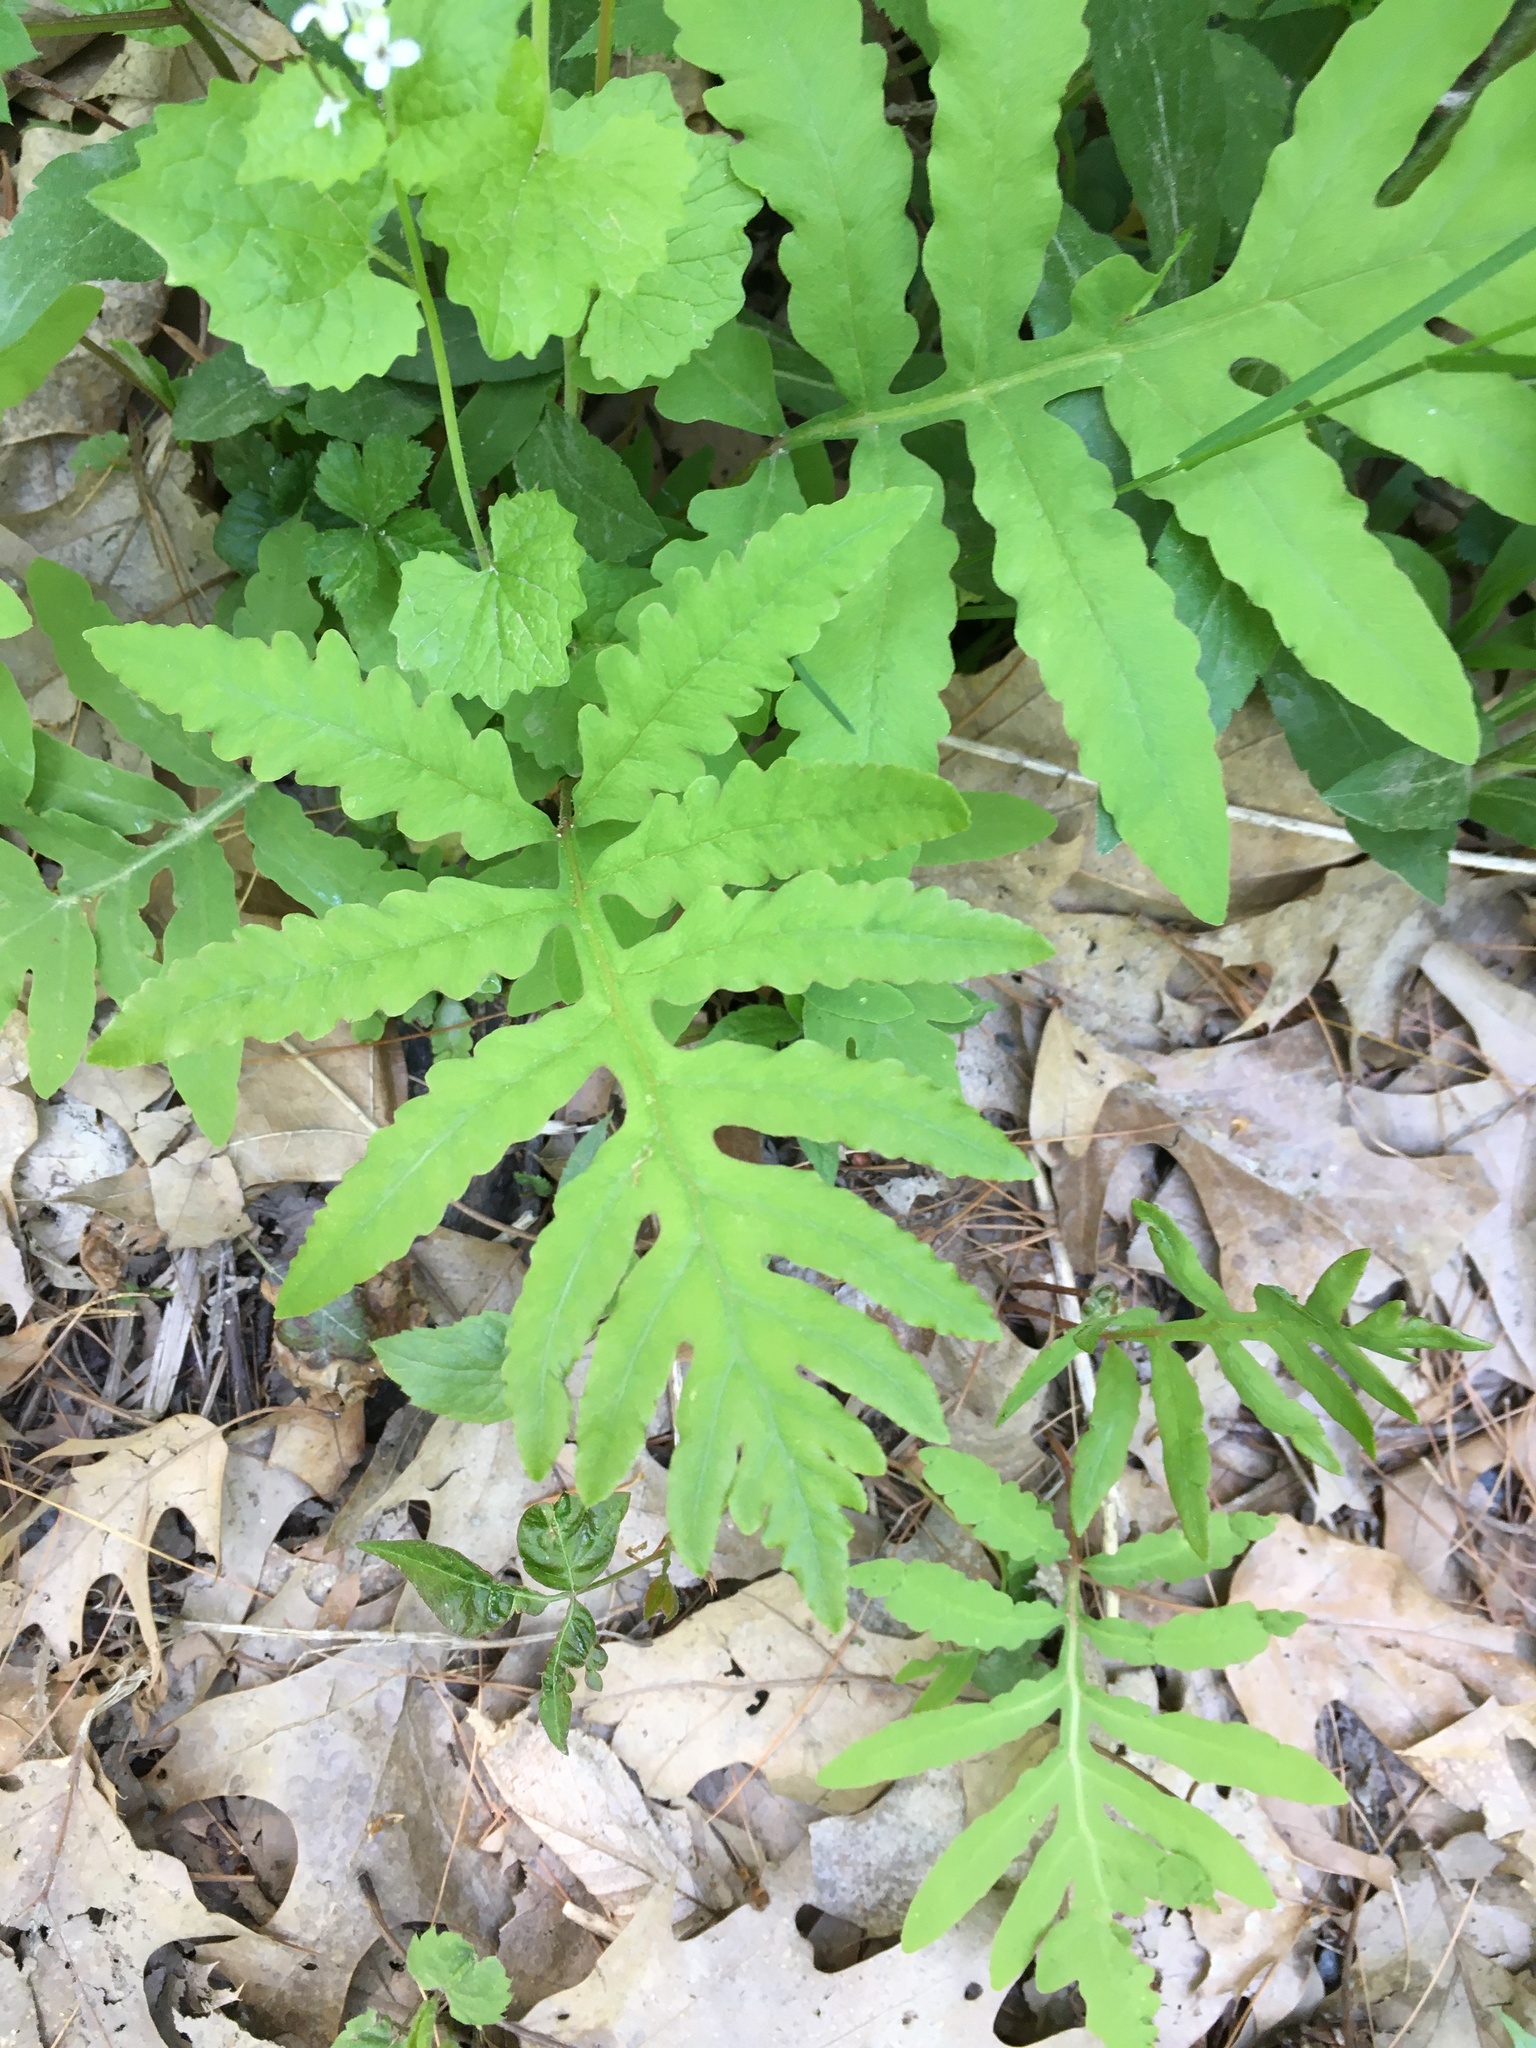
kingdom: Plantae
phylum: Tracheophyta
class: Polypodiopsida
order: Polypodiales
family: Onocleaceae
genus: Onoclea
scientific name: Onoclea sensibilis
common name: Sensitive fern
